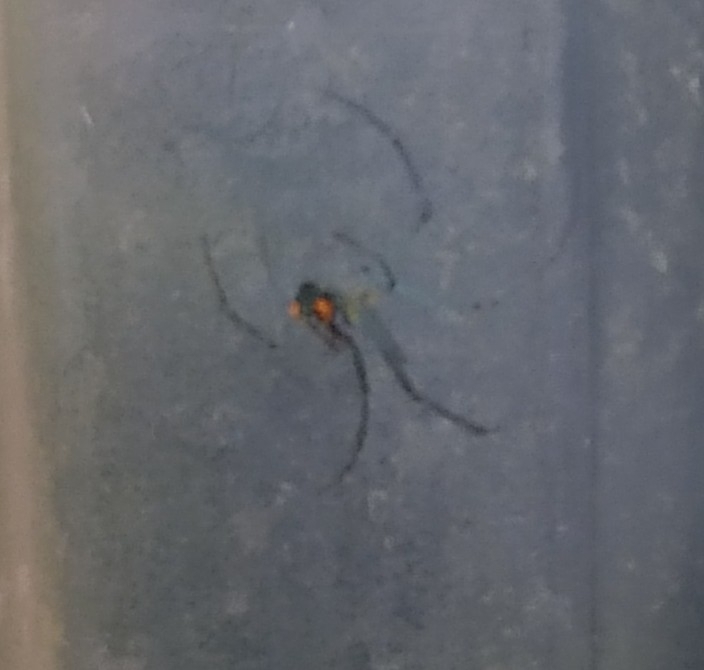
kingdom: Animalia
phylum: Arthropoda
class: Arachnida
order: Araneae
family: Tetragnathidae
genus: Leucauge
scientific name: Leucauge argyrobapta
